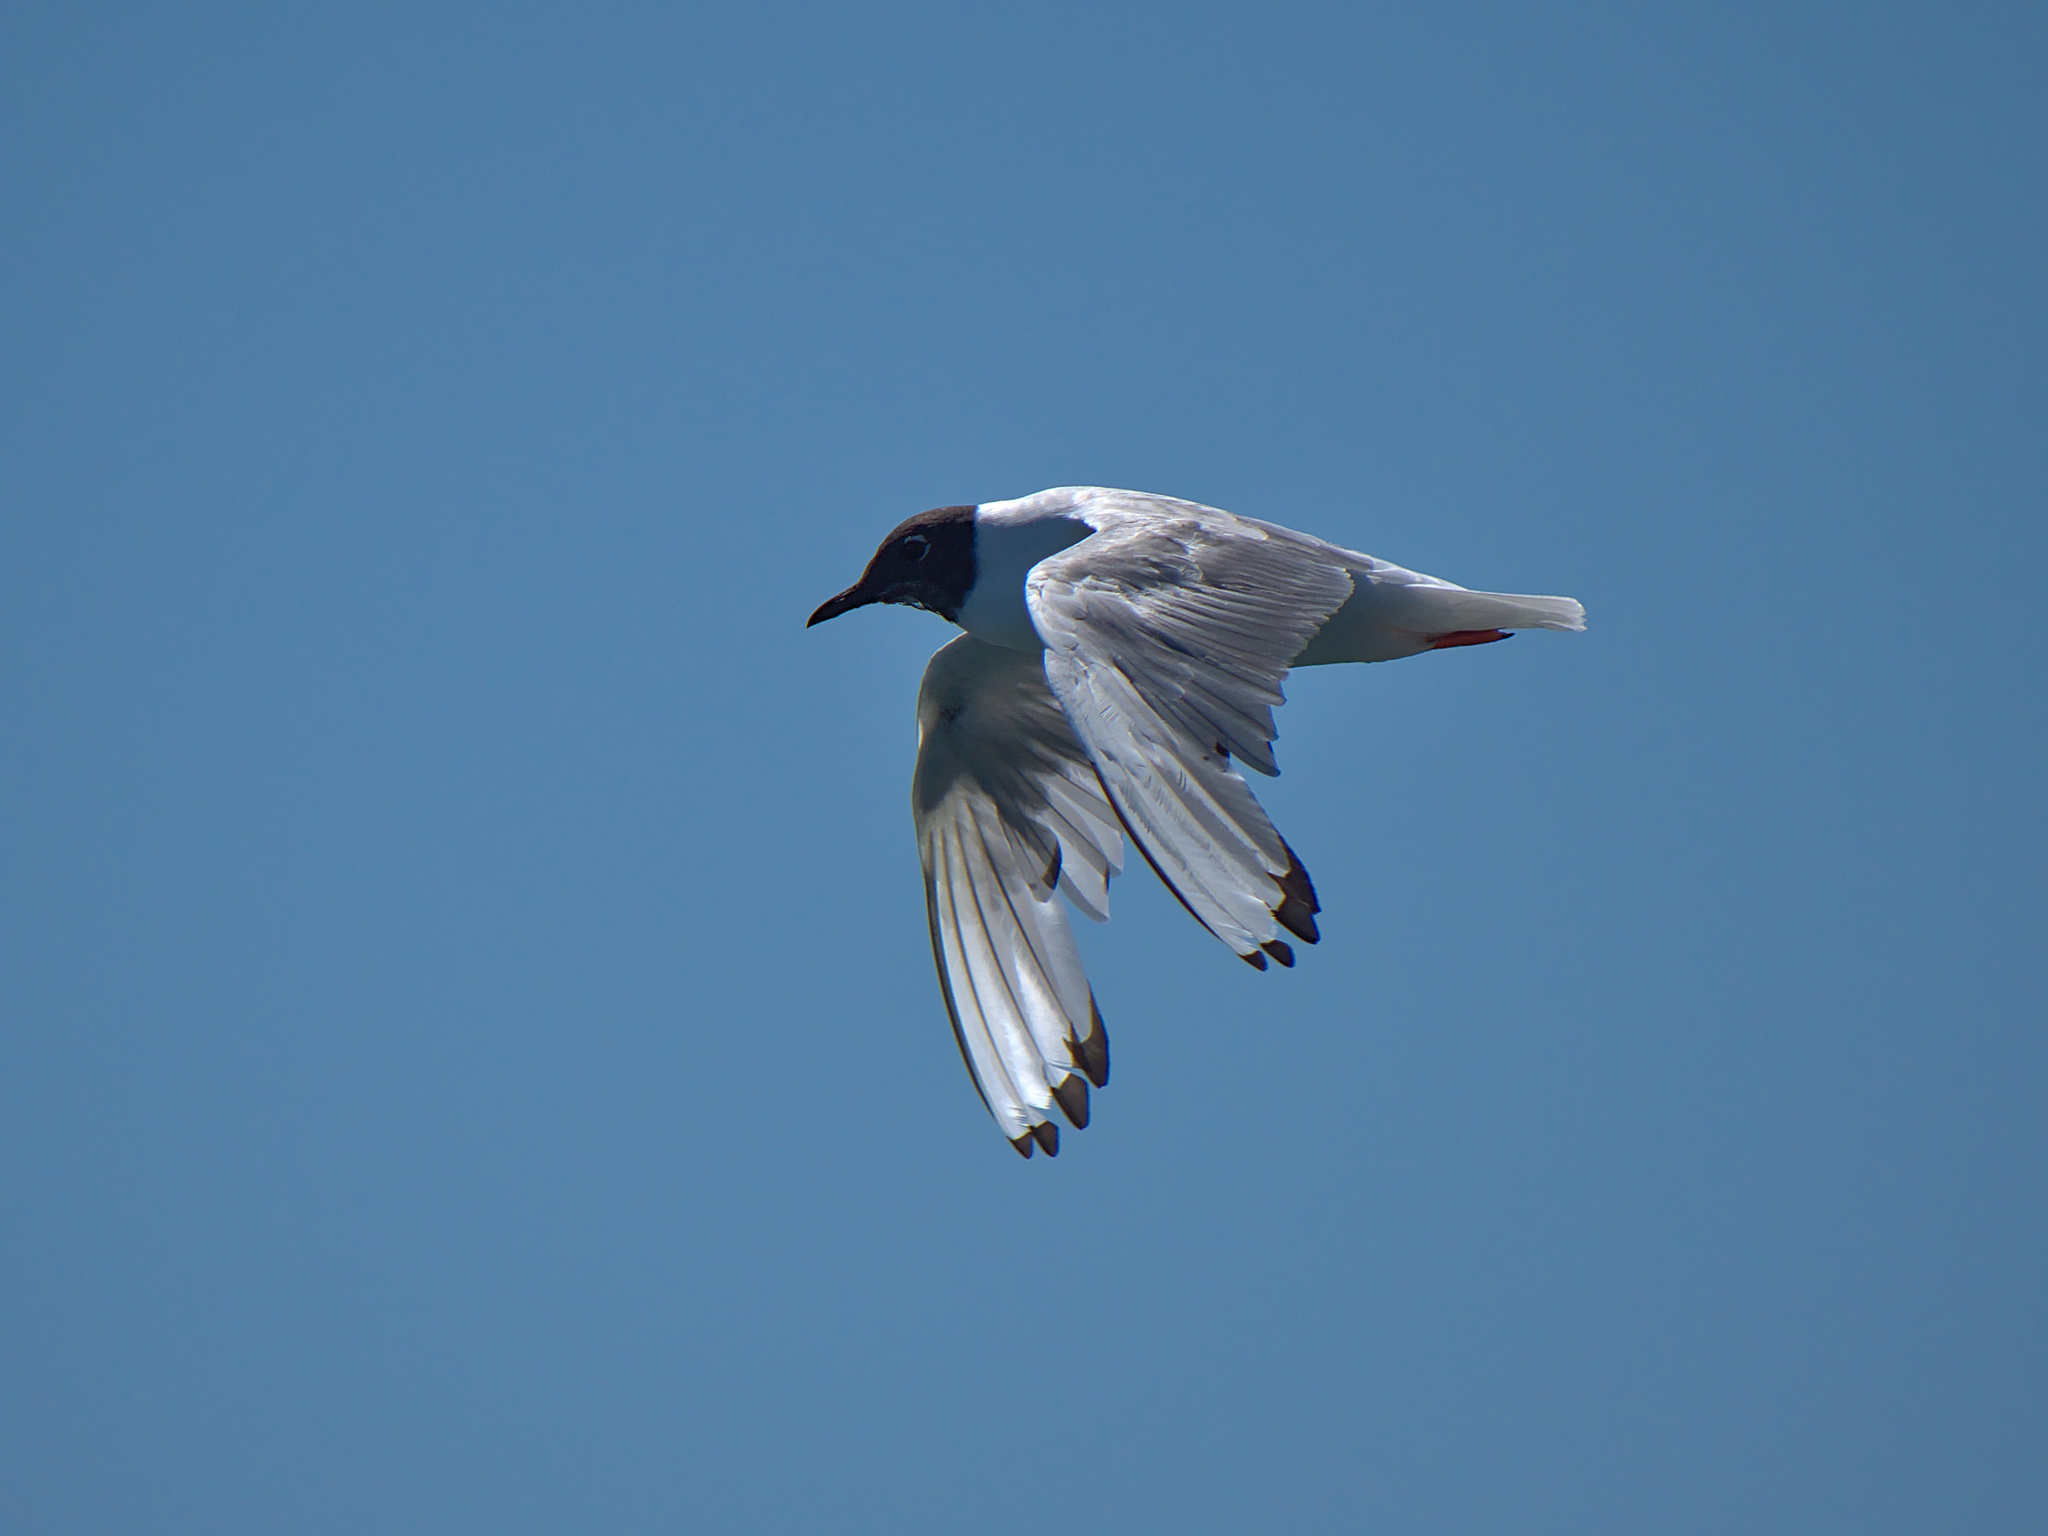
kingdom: Animalia
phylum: Chordata
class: Aves
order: Charadriiformes
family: Laridae
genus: Chroicocephalus
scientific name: Chroicocephalus philadelphia
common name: Bonaparte's gull
